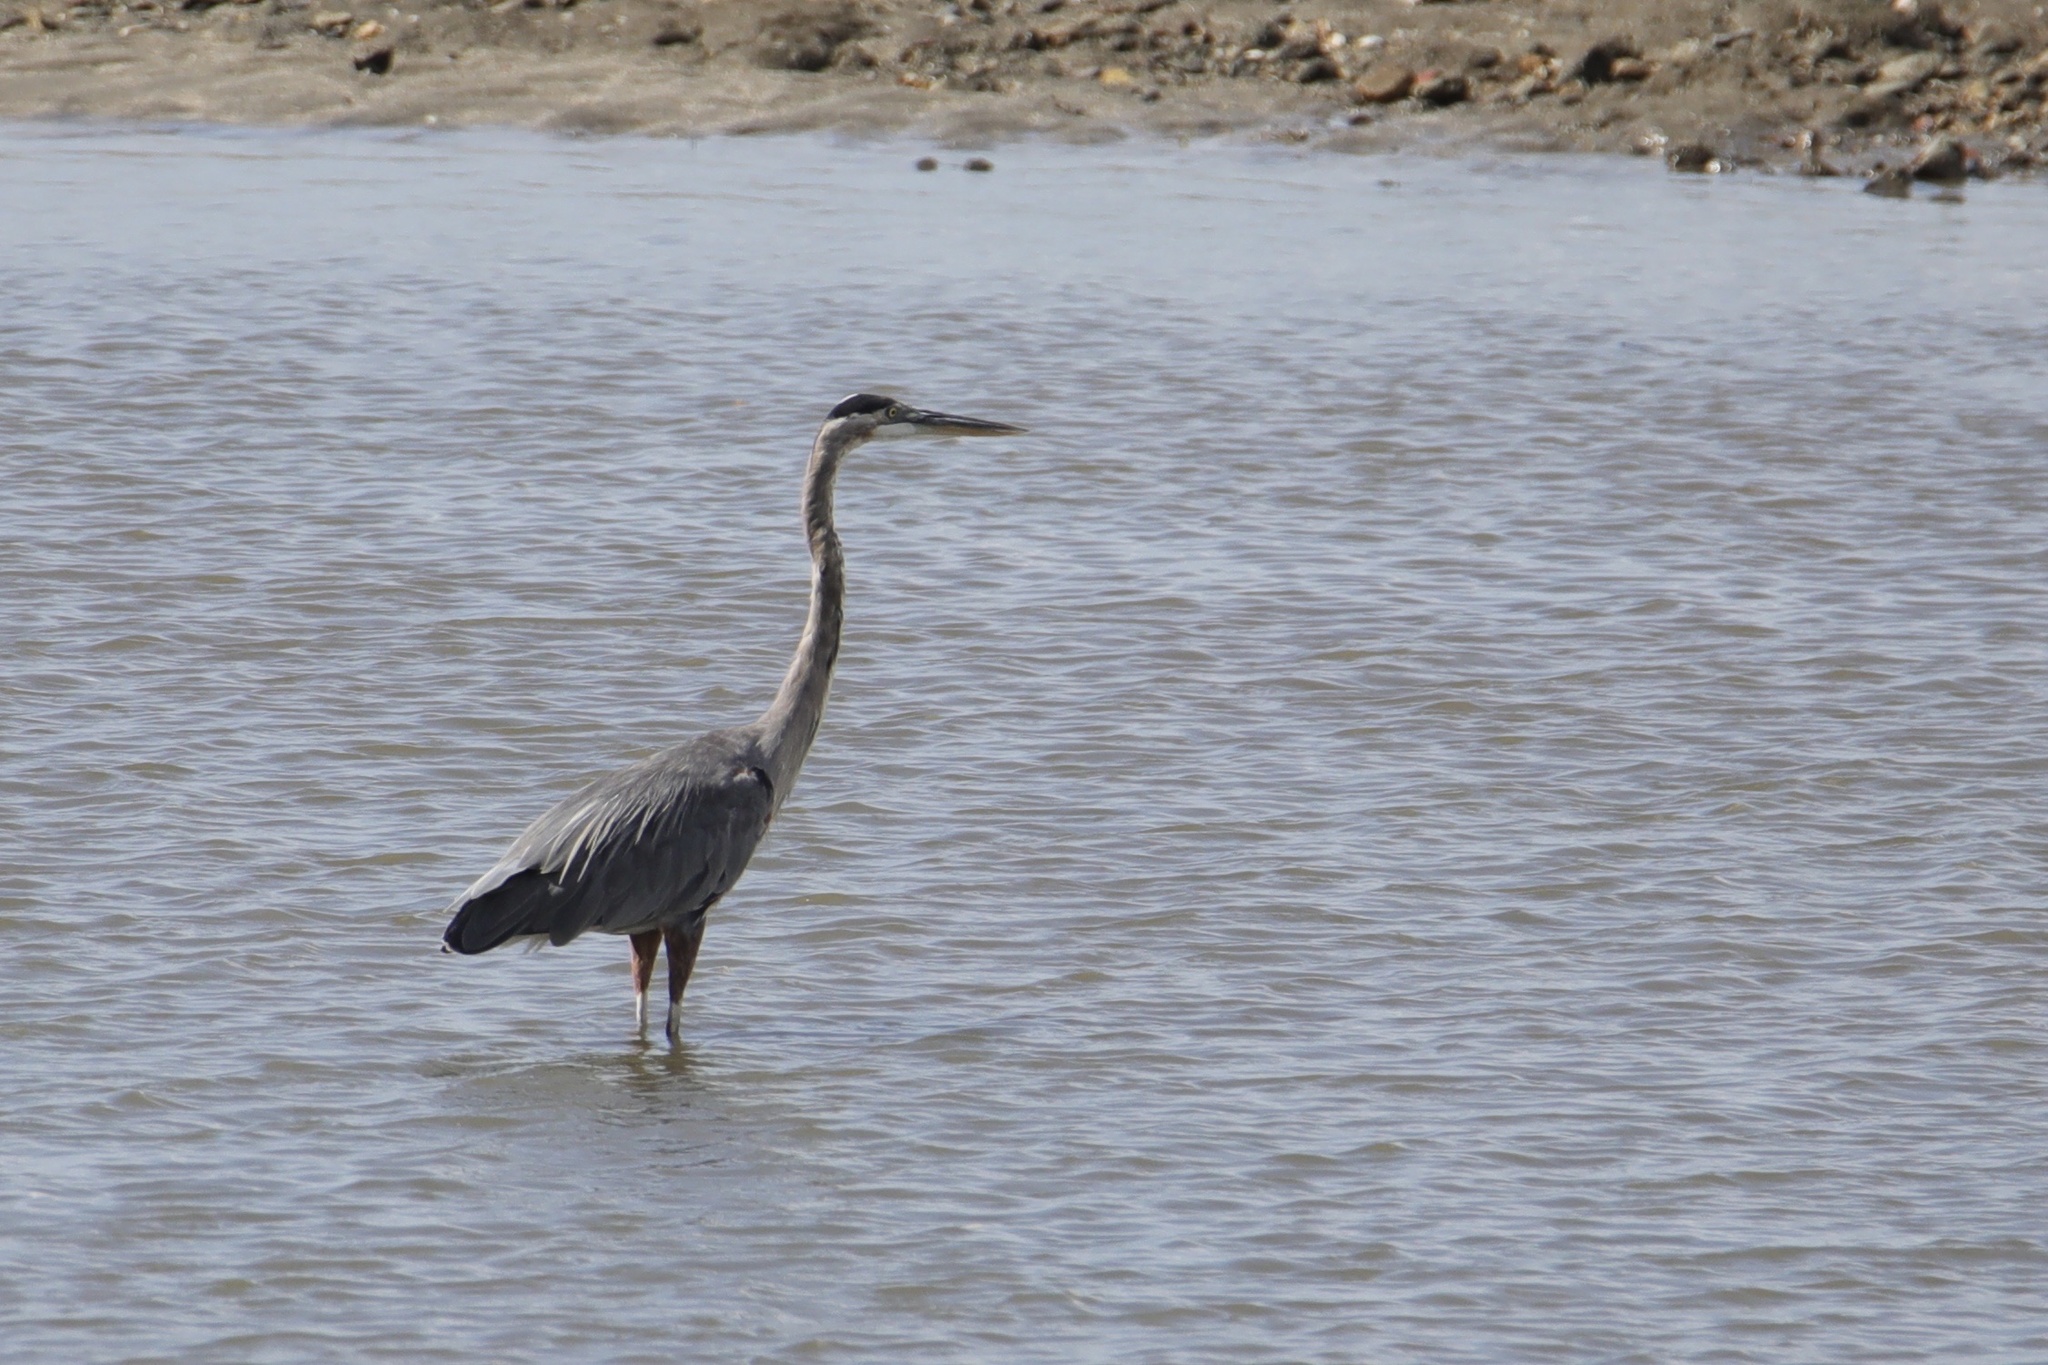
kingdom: Animalia
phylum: Chordata
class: Aves
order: Pelecaniformes
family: Ardeidae
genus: Ardea
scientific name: Ardea herodias
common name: Great blue heron
